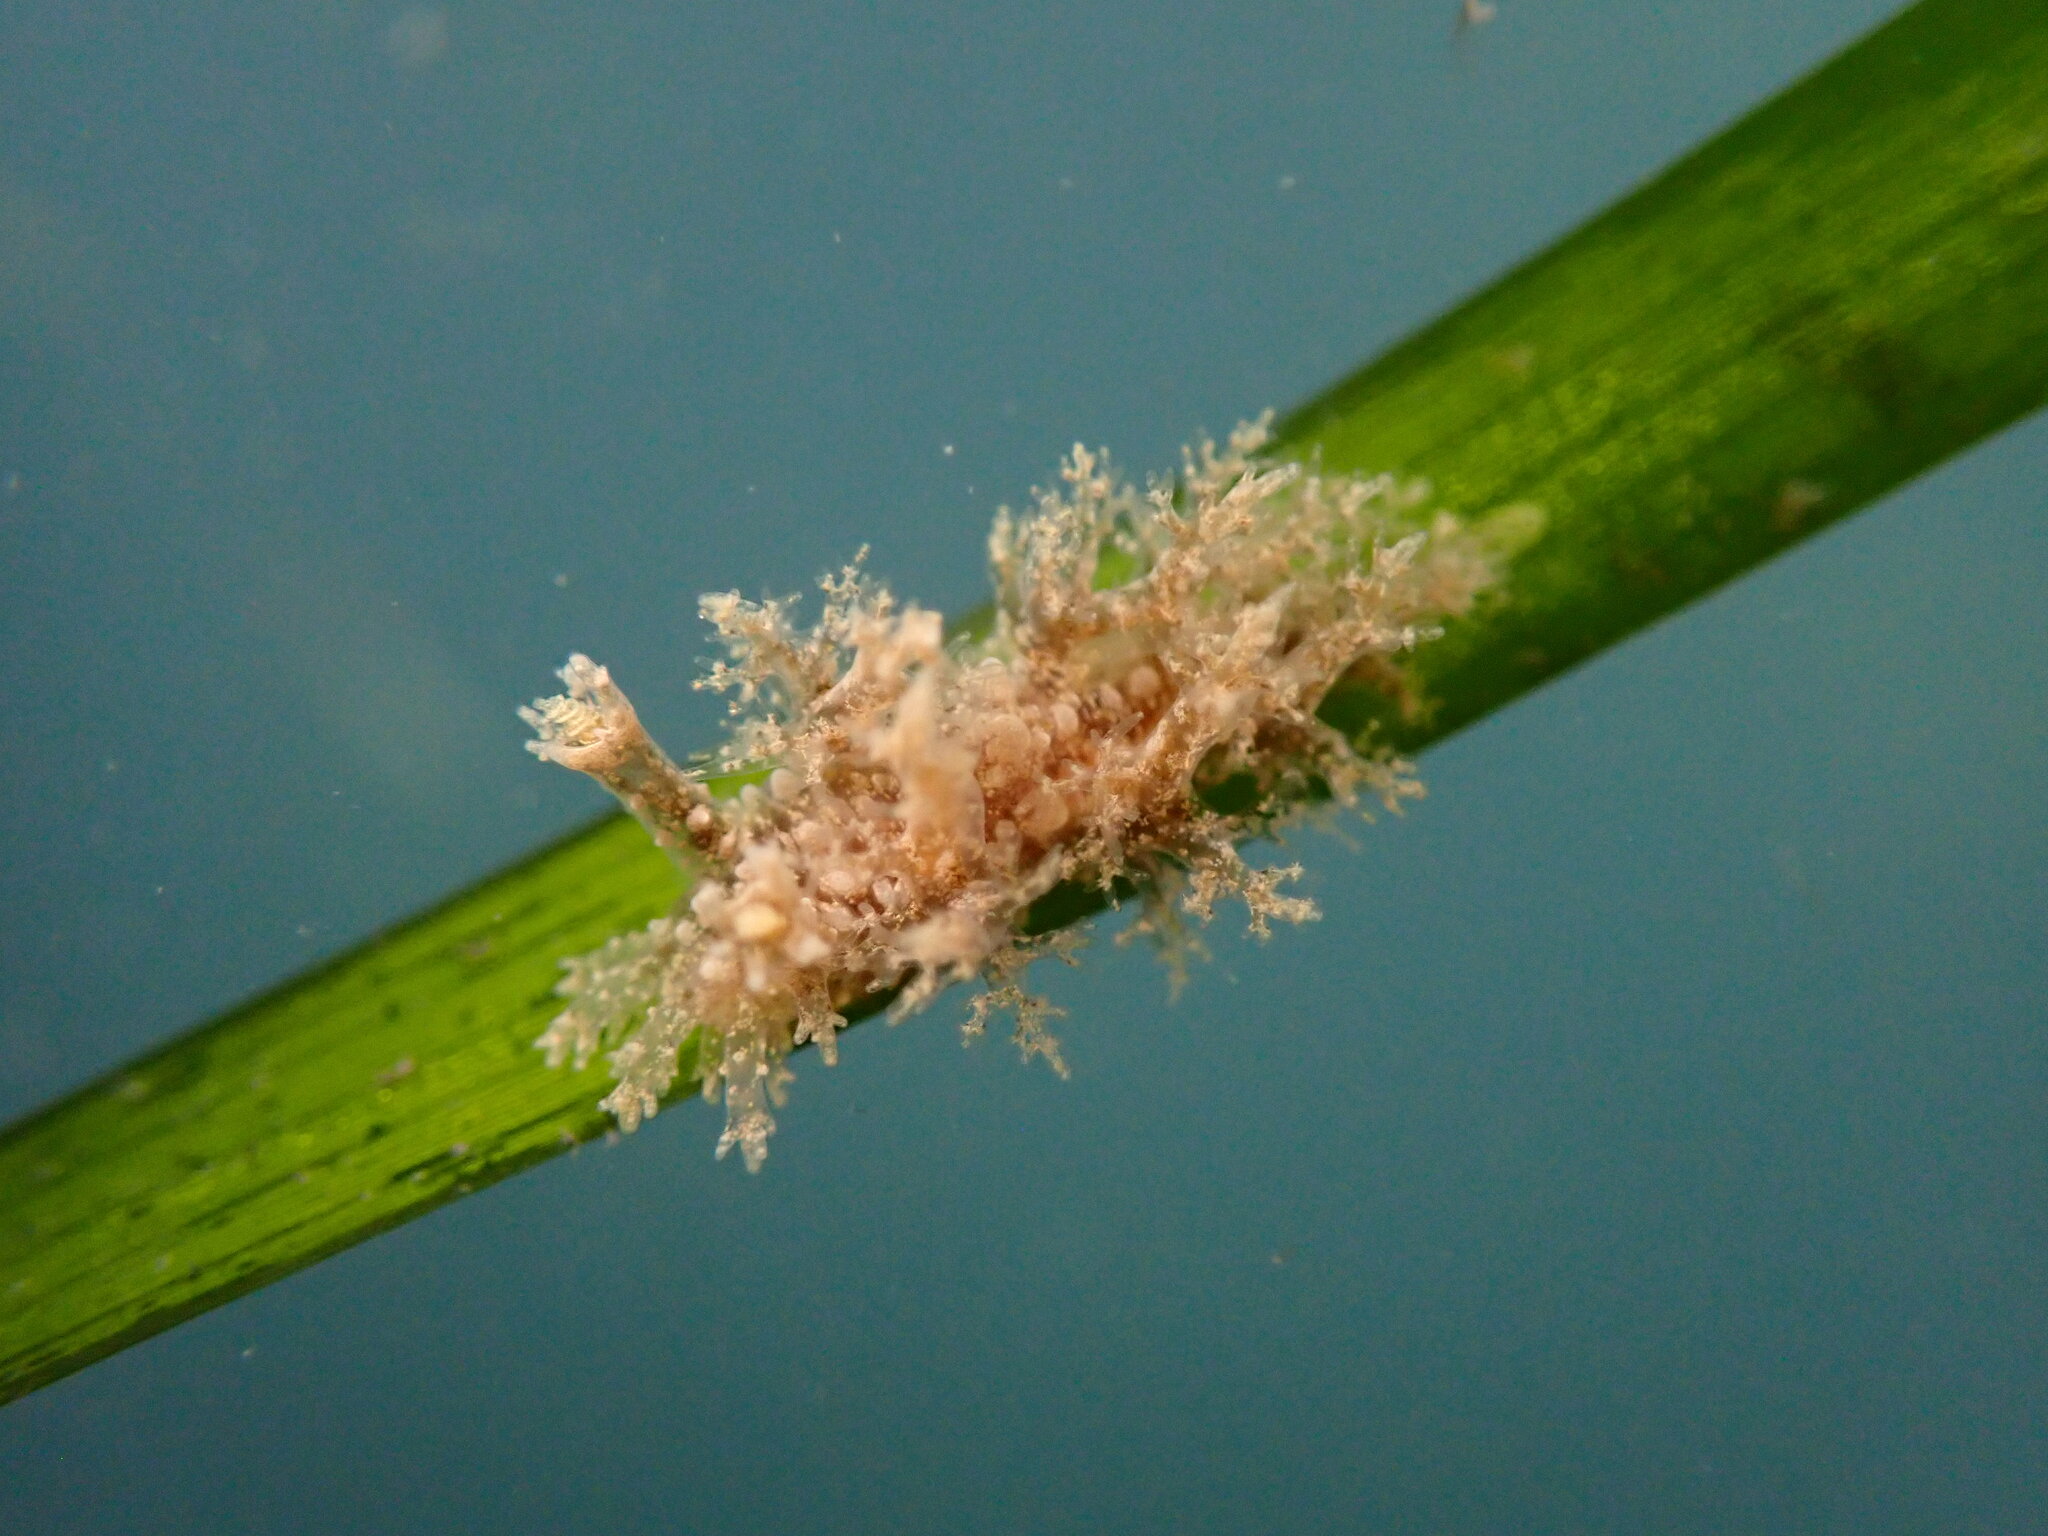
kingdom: Animalia
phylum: Mollusca
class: Gastropoda
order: Nudibranchia
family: Dendronotidae
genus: Dendronotus
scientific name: Dendronotus venustus
